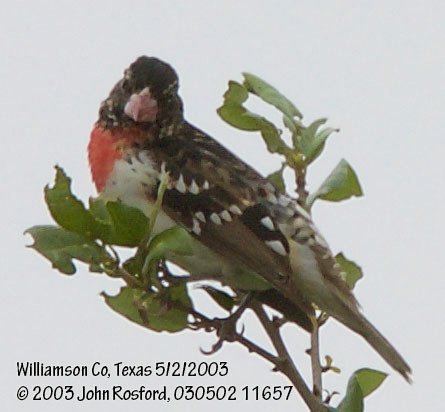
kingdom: Animalia
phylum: Chordata
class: Aves
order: Passeriformes
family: Cardinalidae
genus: Pheucticus
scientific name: Pheucticus ludovicianus
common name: Rose-breasted grosbeak
